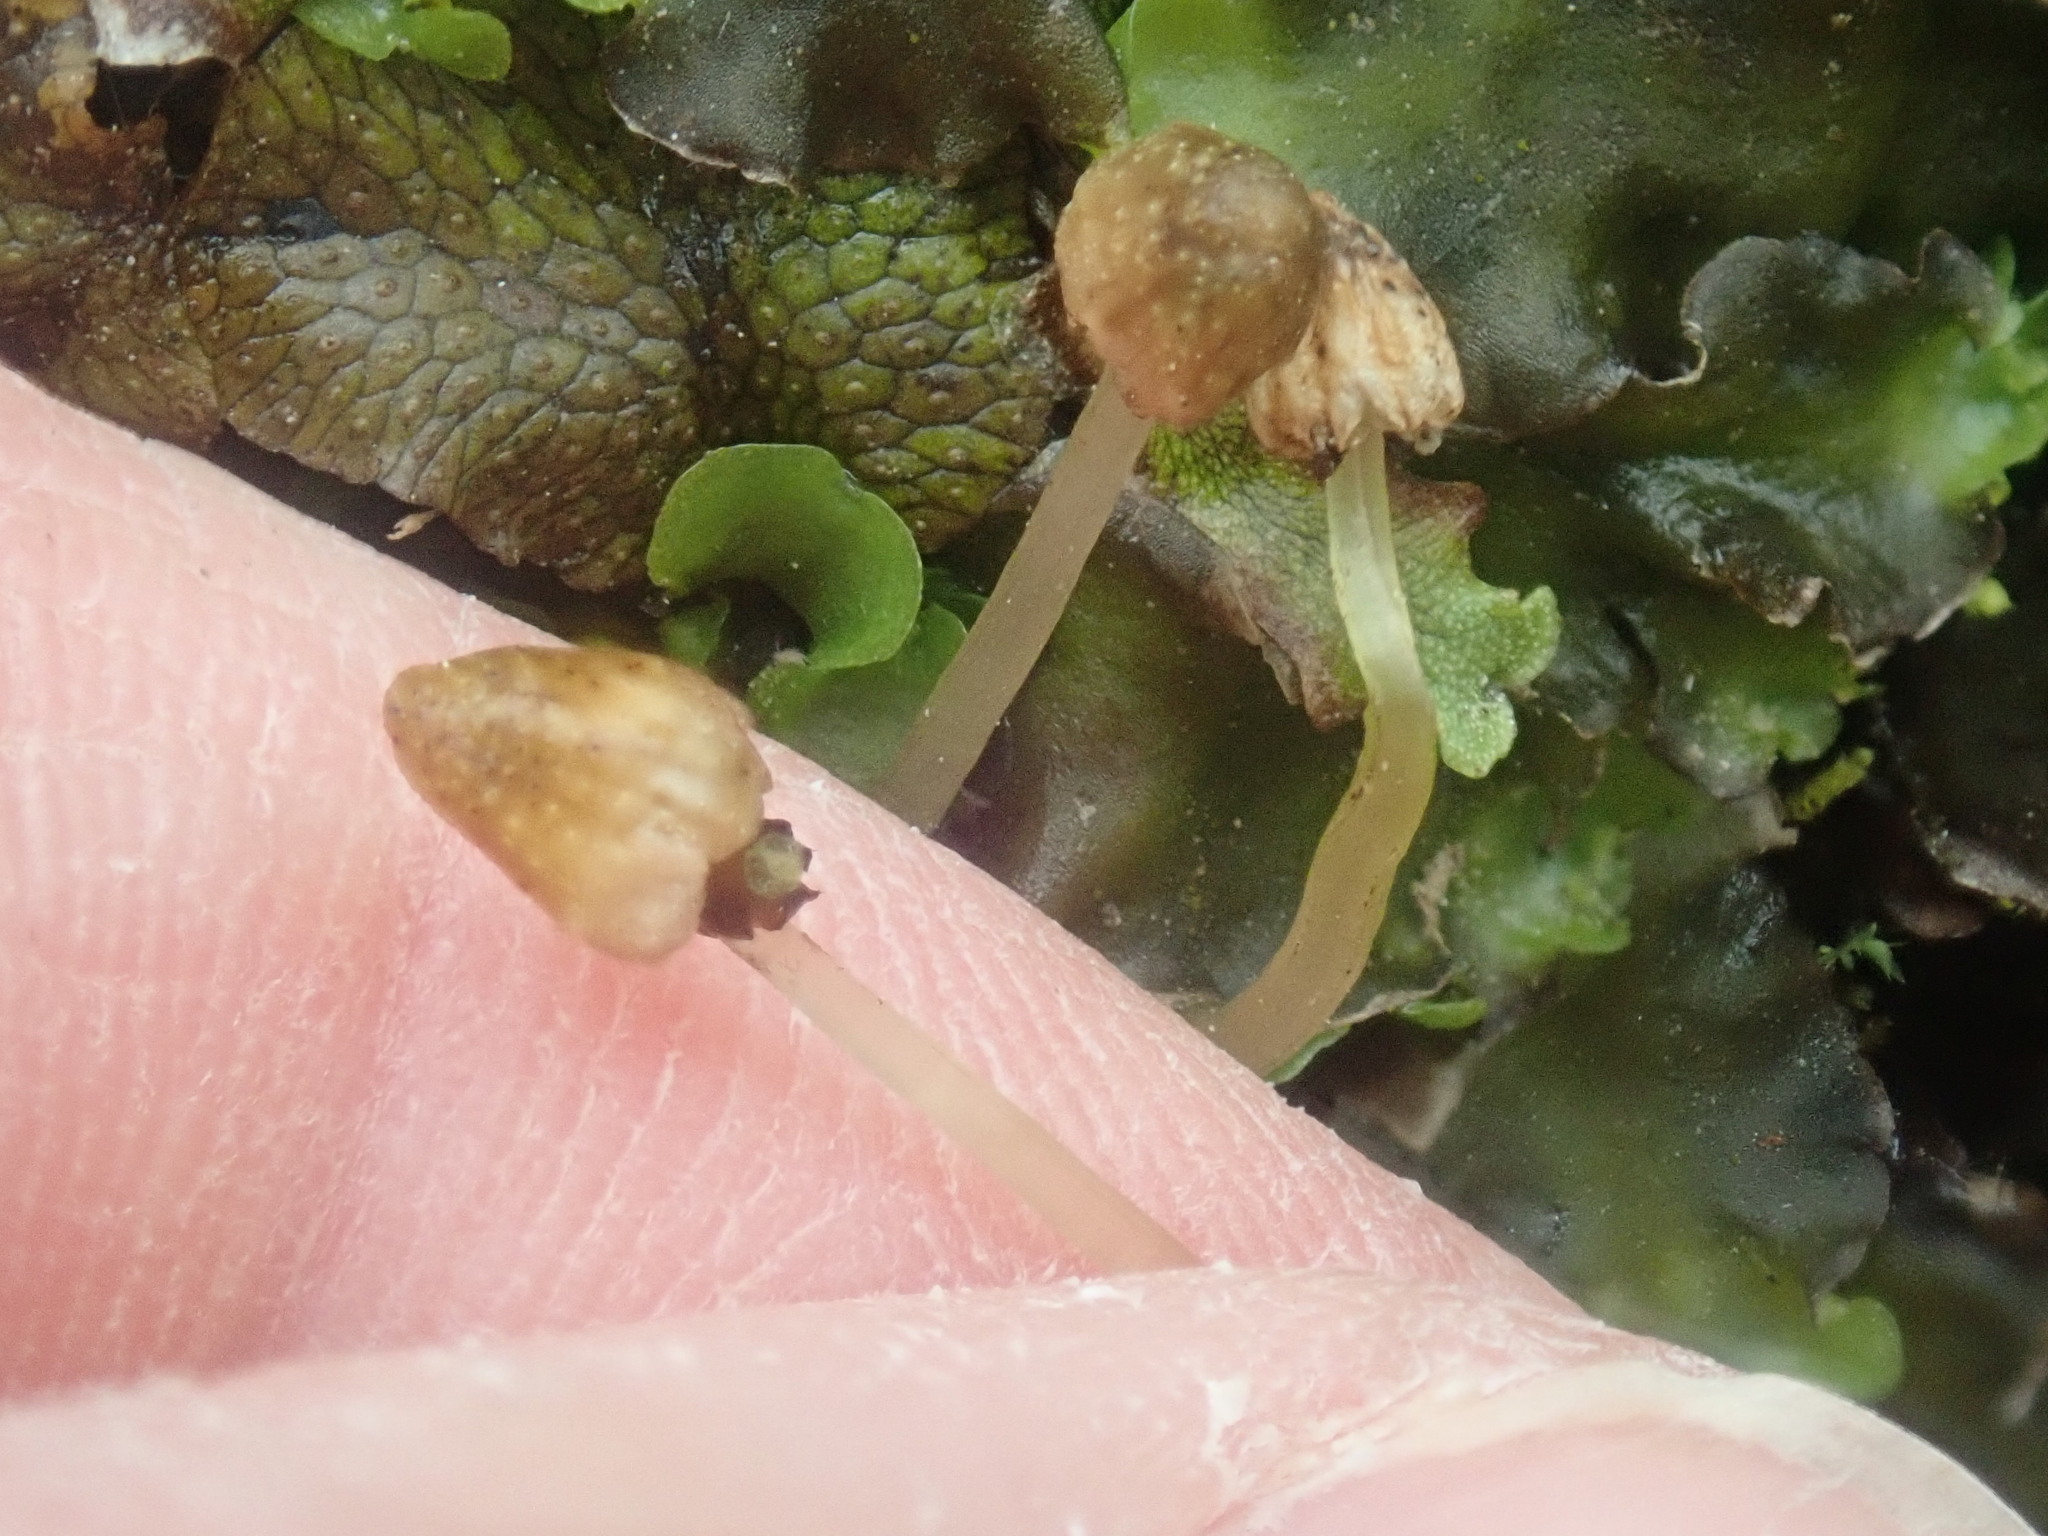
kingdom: Plantae
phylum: Marchantiophyta
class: Marchantiopsida
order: Marchantiales
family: Conocephalaceae
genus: Conocephalum
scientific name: Conocephalum salebrosum
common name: Cat-tongue liverwort
